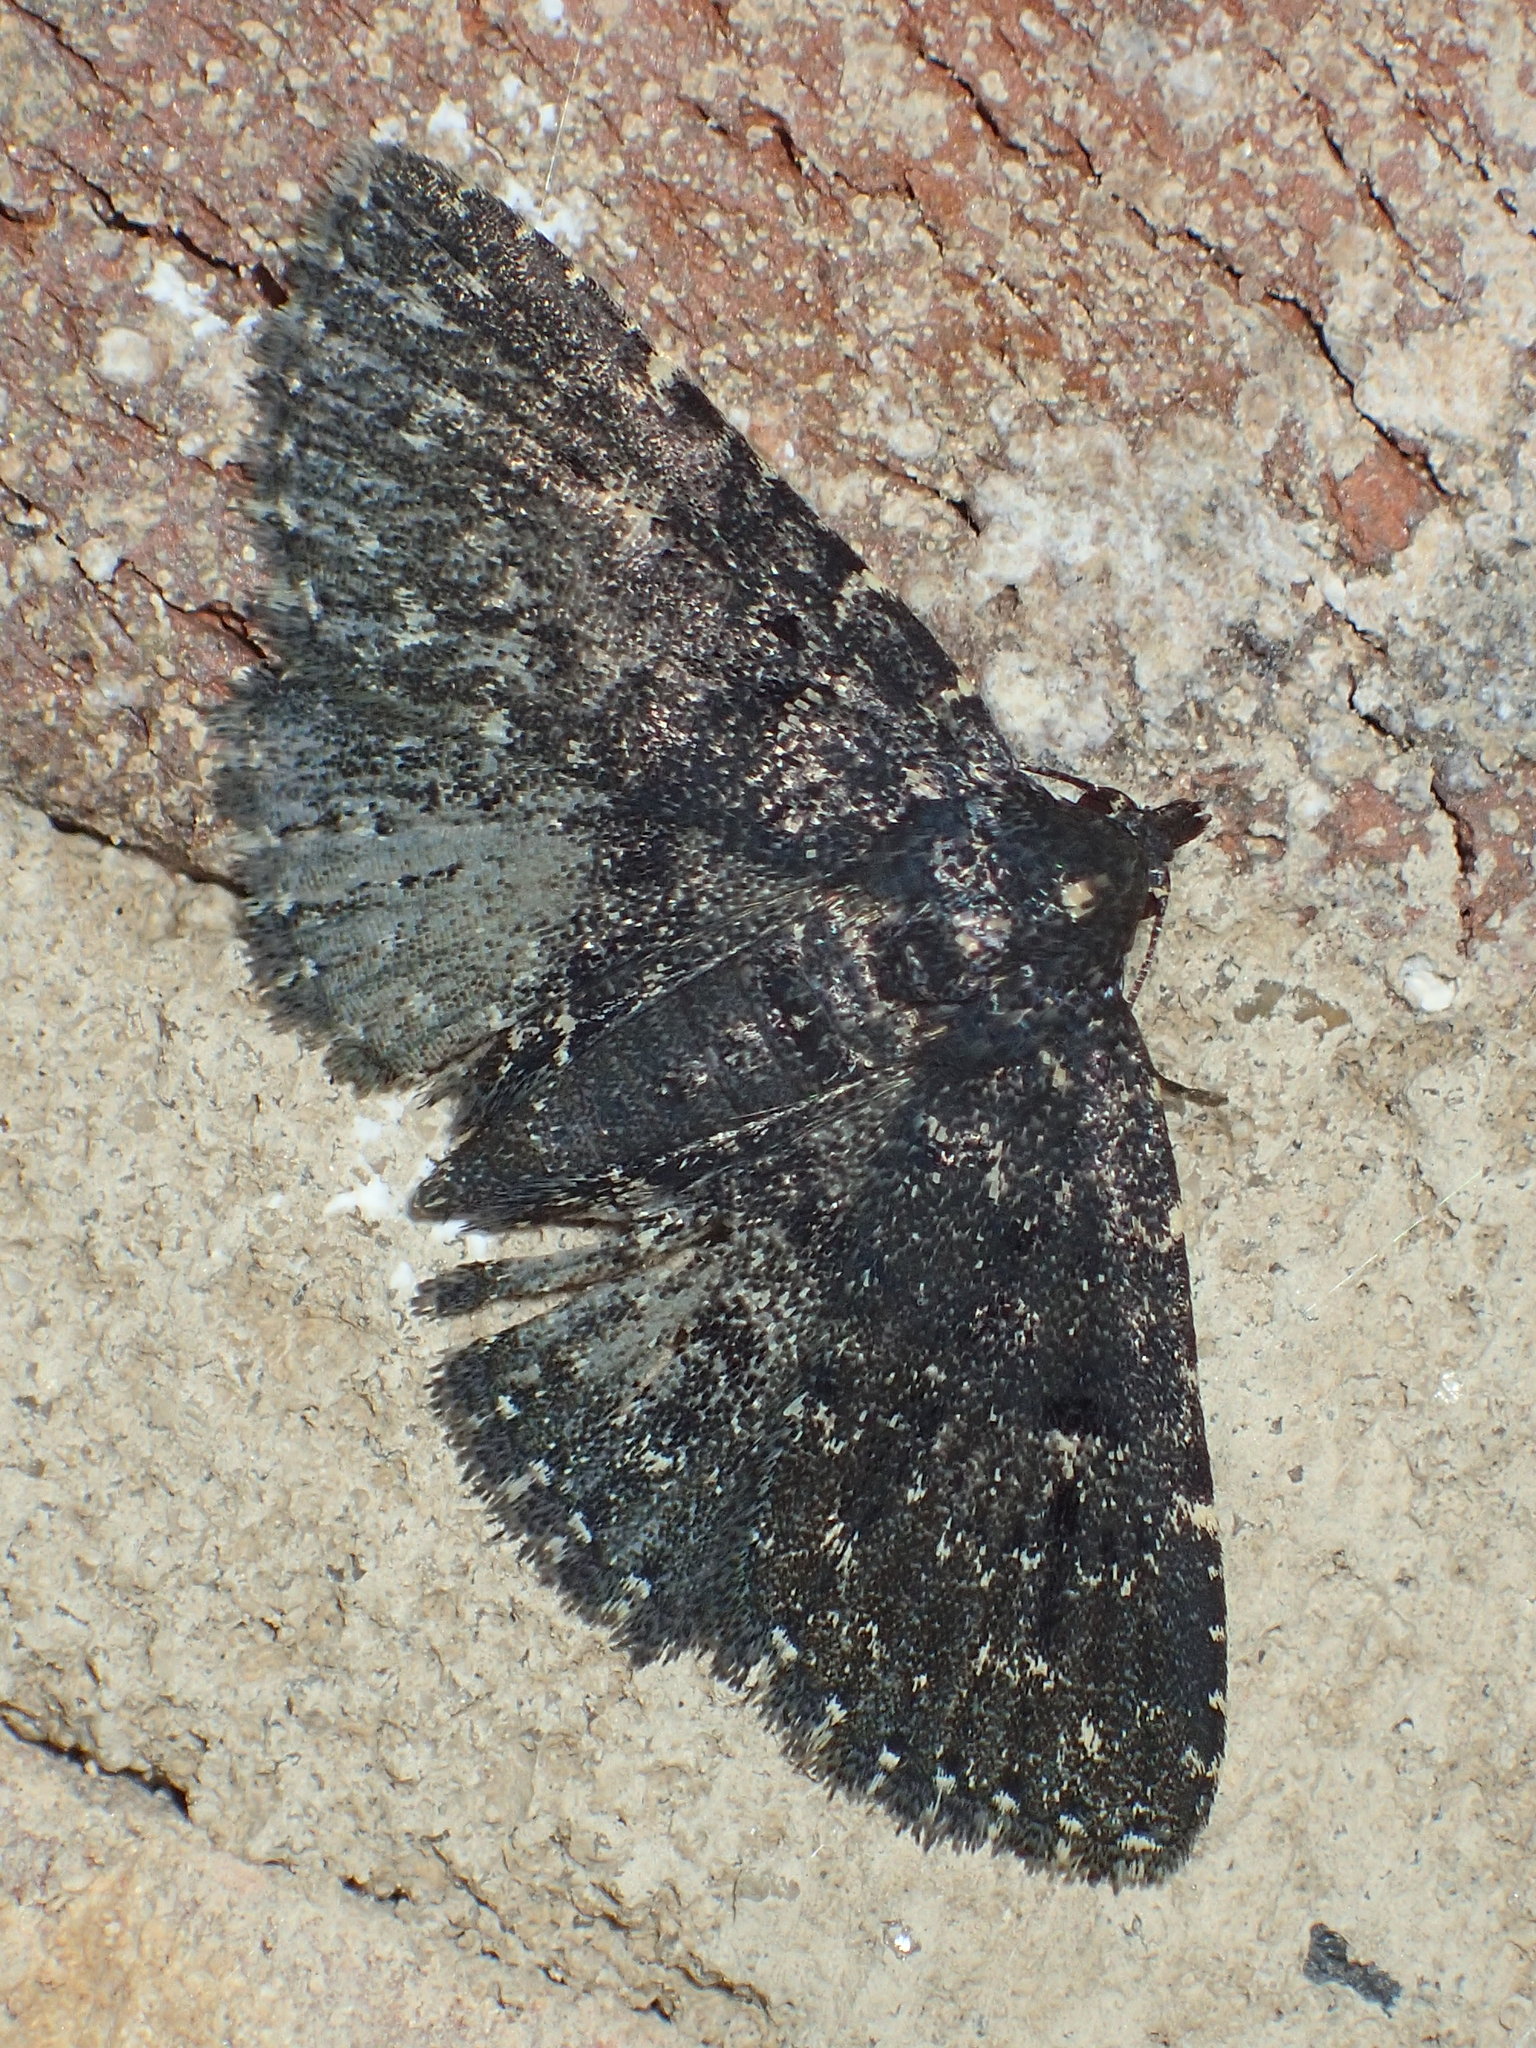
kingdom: Animalia
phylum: Arthropoda
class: Insecta
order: Lepidoptera
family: Erebidae
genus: Metalectra
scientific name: Metalectra tantillus
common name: Black fungus moth
